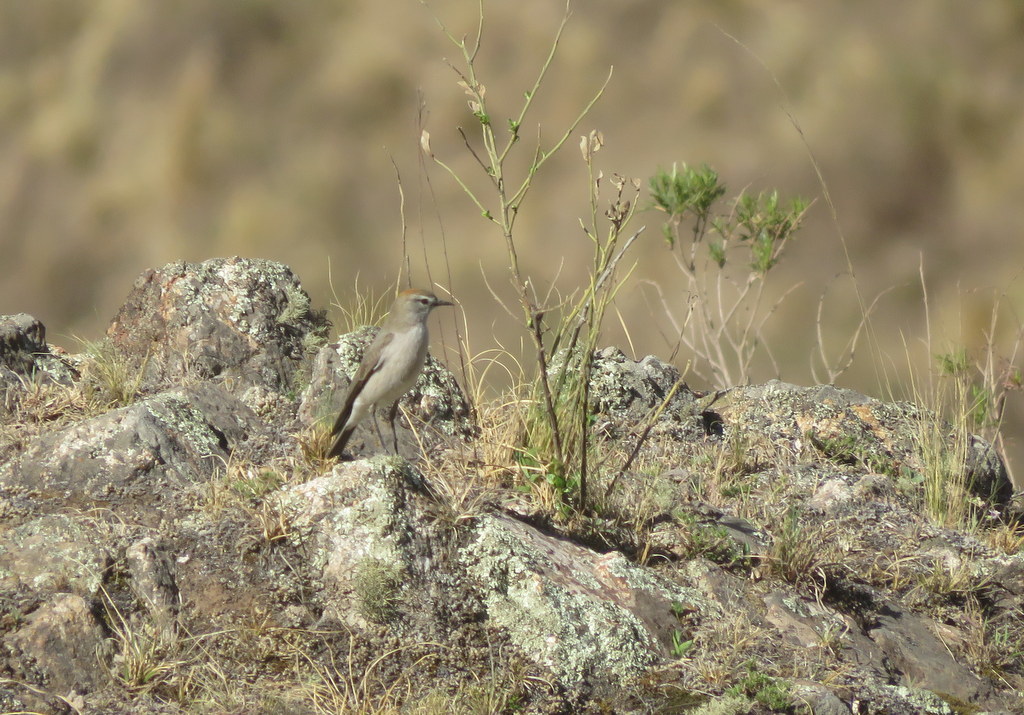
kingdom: Animalia
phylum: Chordata
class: Aves
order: Passeriformes
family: Tyrannidae
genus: Muscisaxicola
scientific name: Muscisaxicola albilora
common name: White-browed ground tyrant
